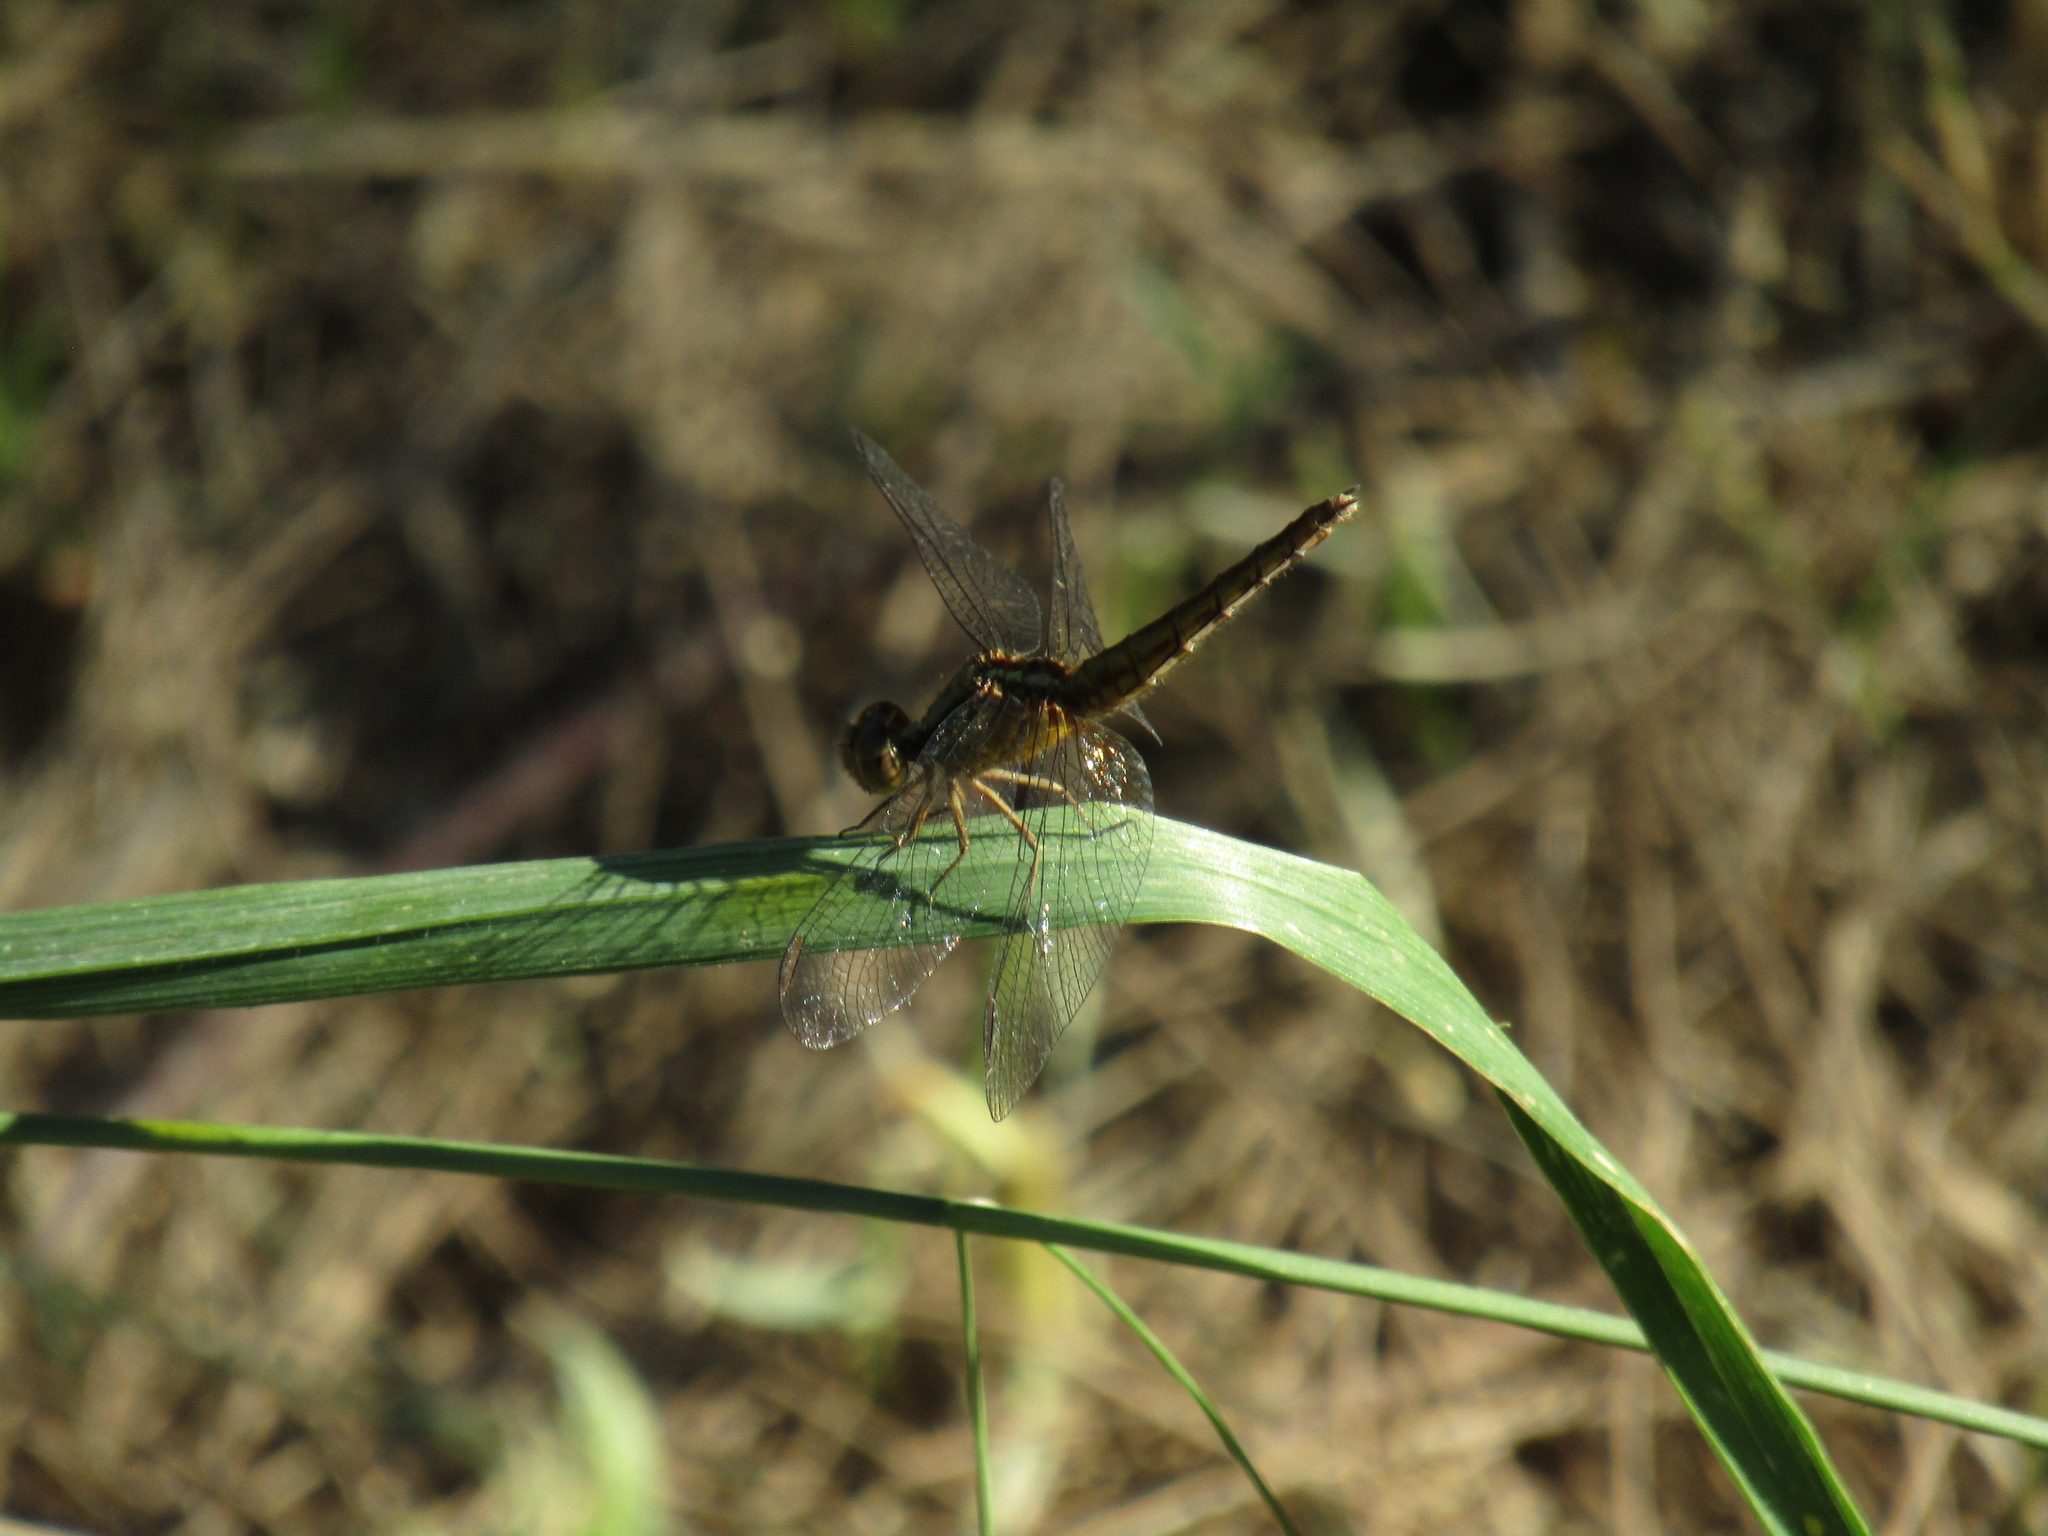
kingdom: Animalia
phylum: Arthropoda
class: Insecta
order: Odonata
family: Libellulidae
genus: Erythrodiplax
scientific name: Erythrodiplax melanorubra
